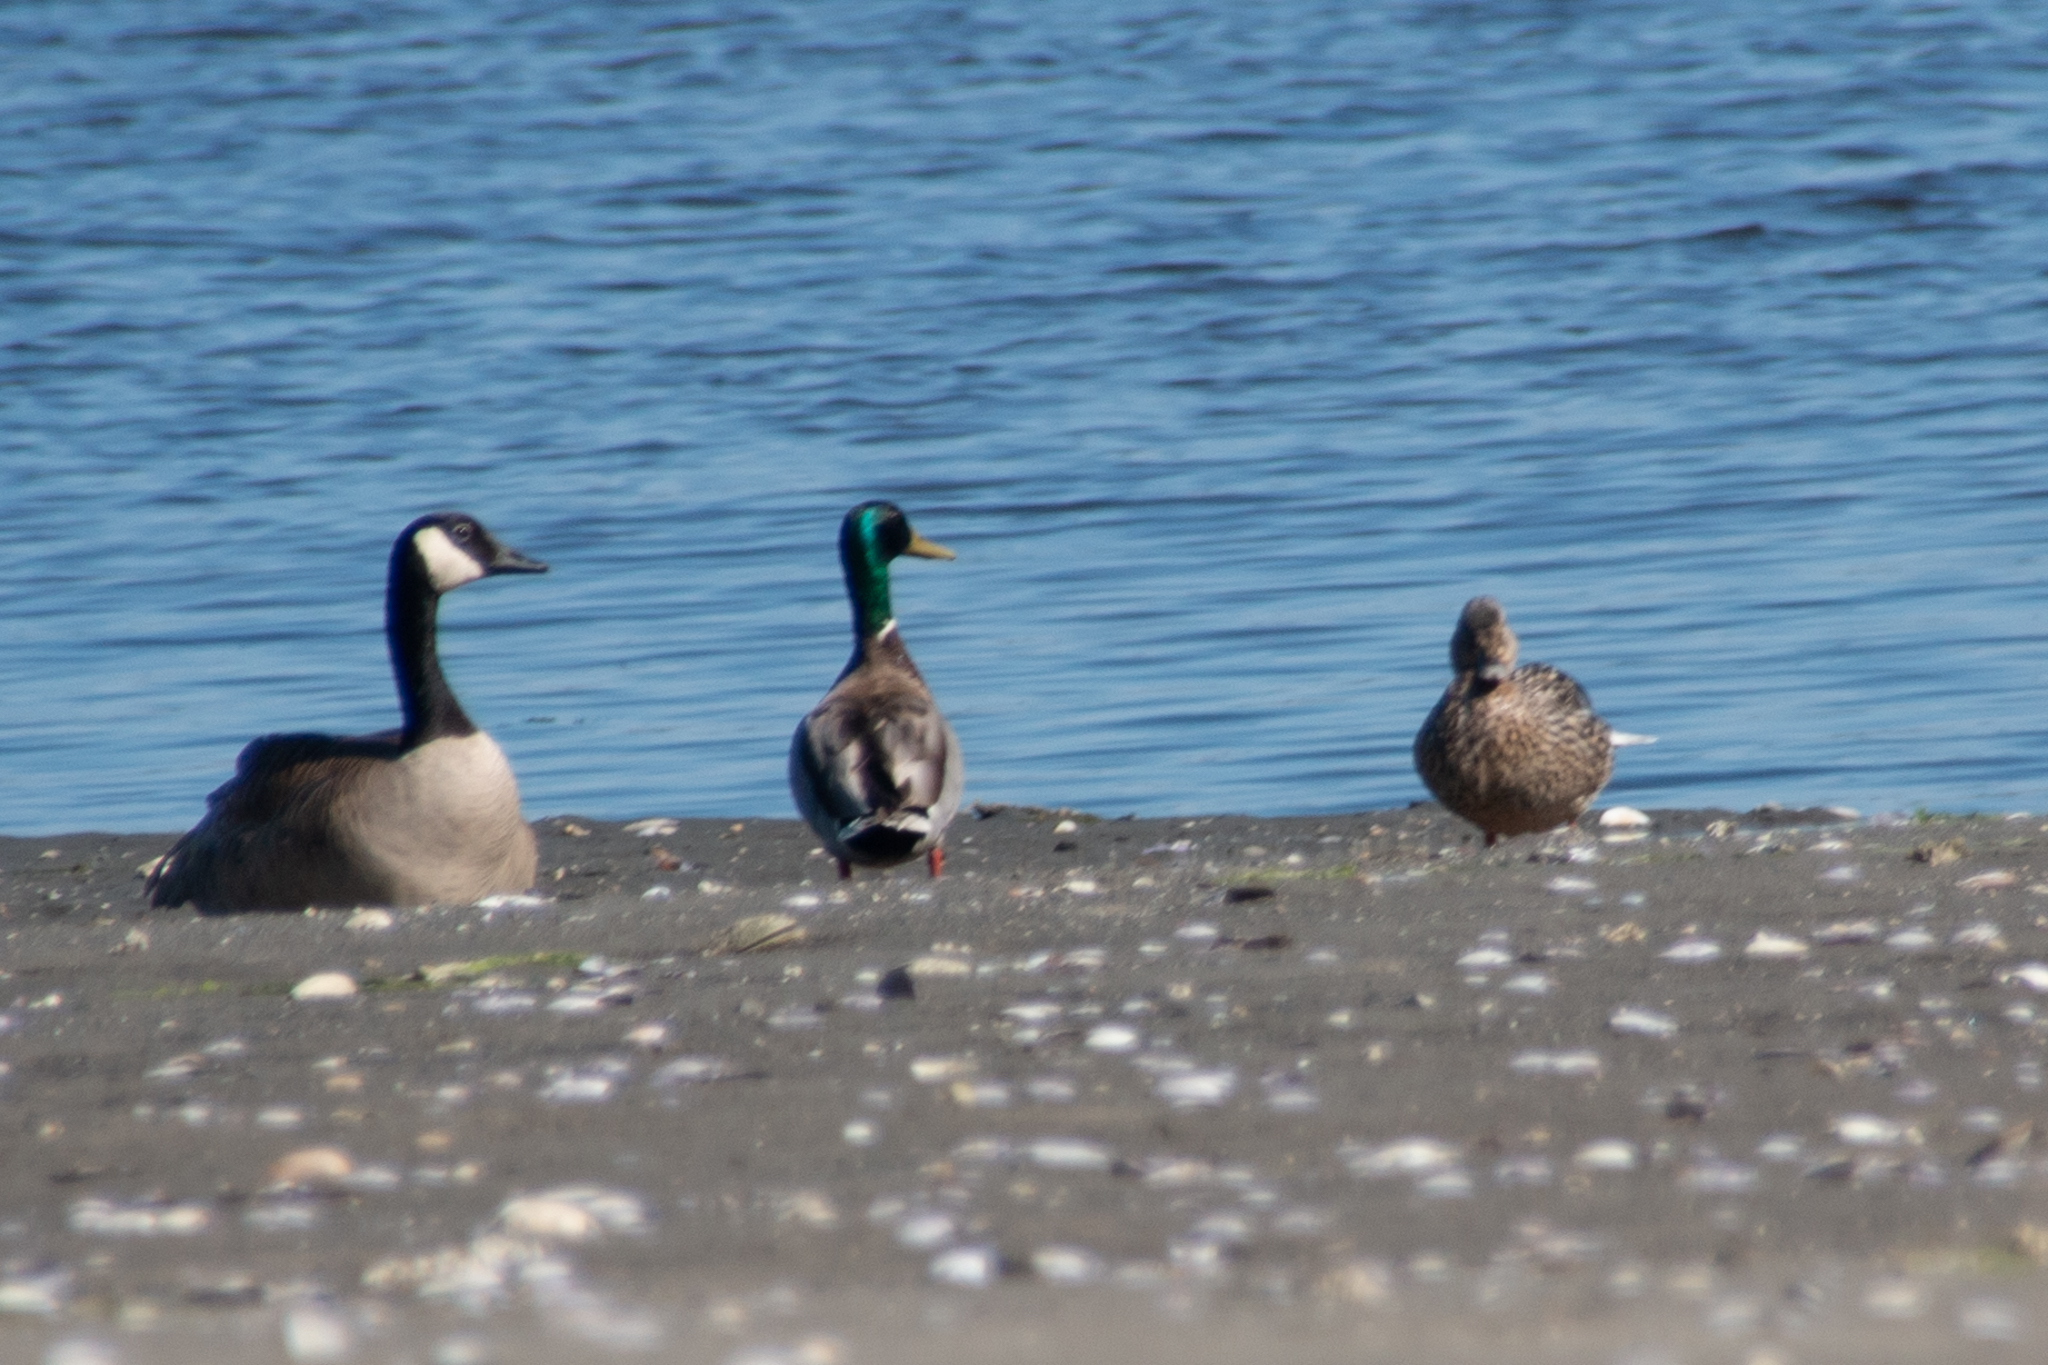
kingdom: Animalia
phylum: Chordata
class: Aves
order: Anseriformes
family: Anatidae
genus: Anas
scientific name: Anas platyrhynchos
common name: Mallard
